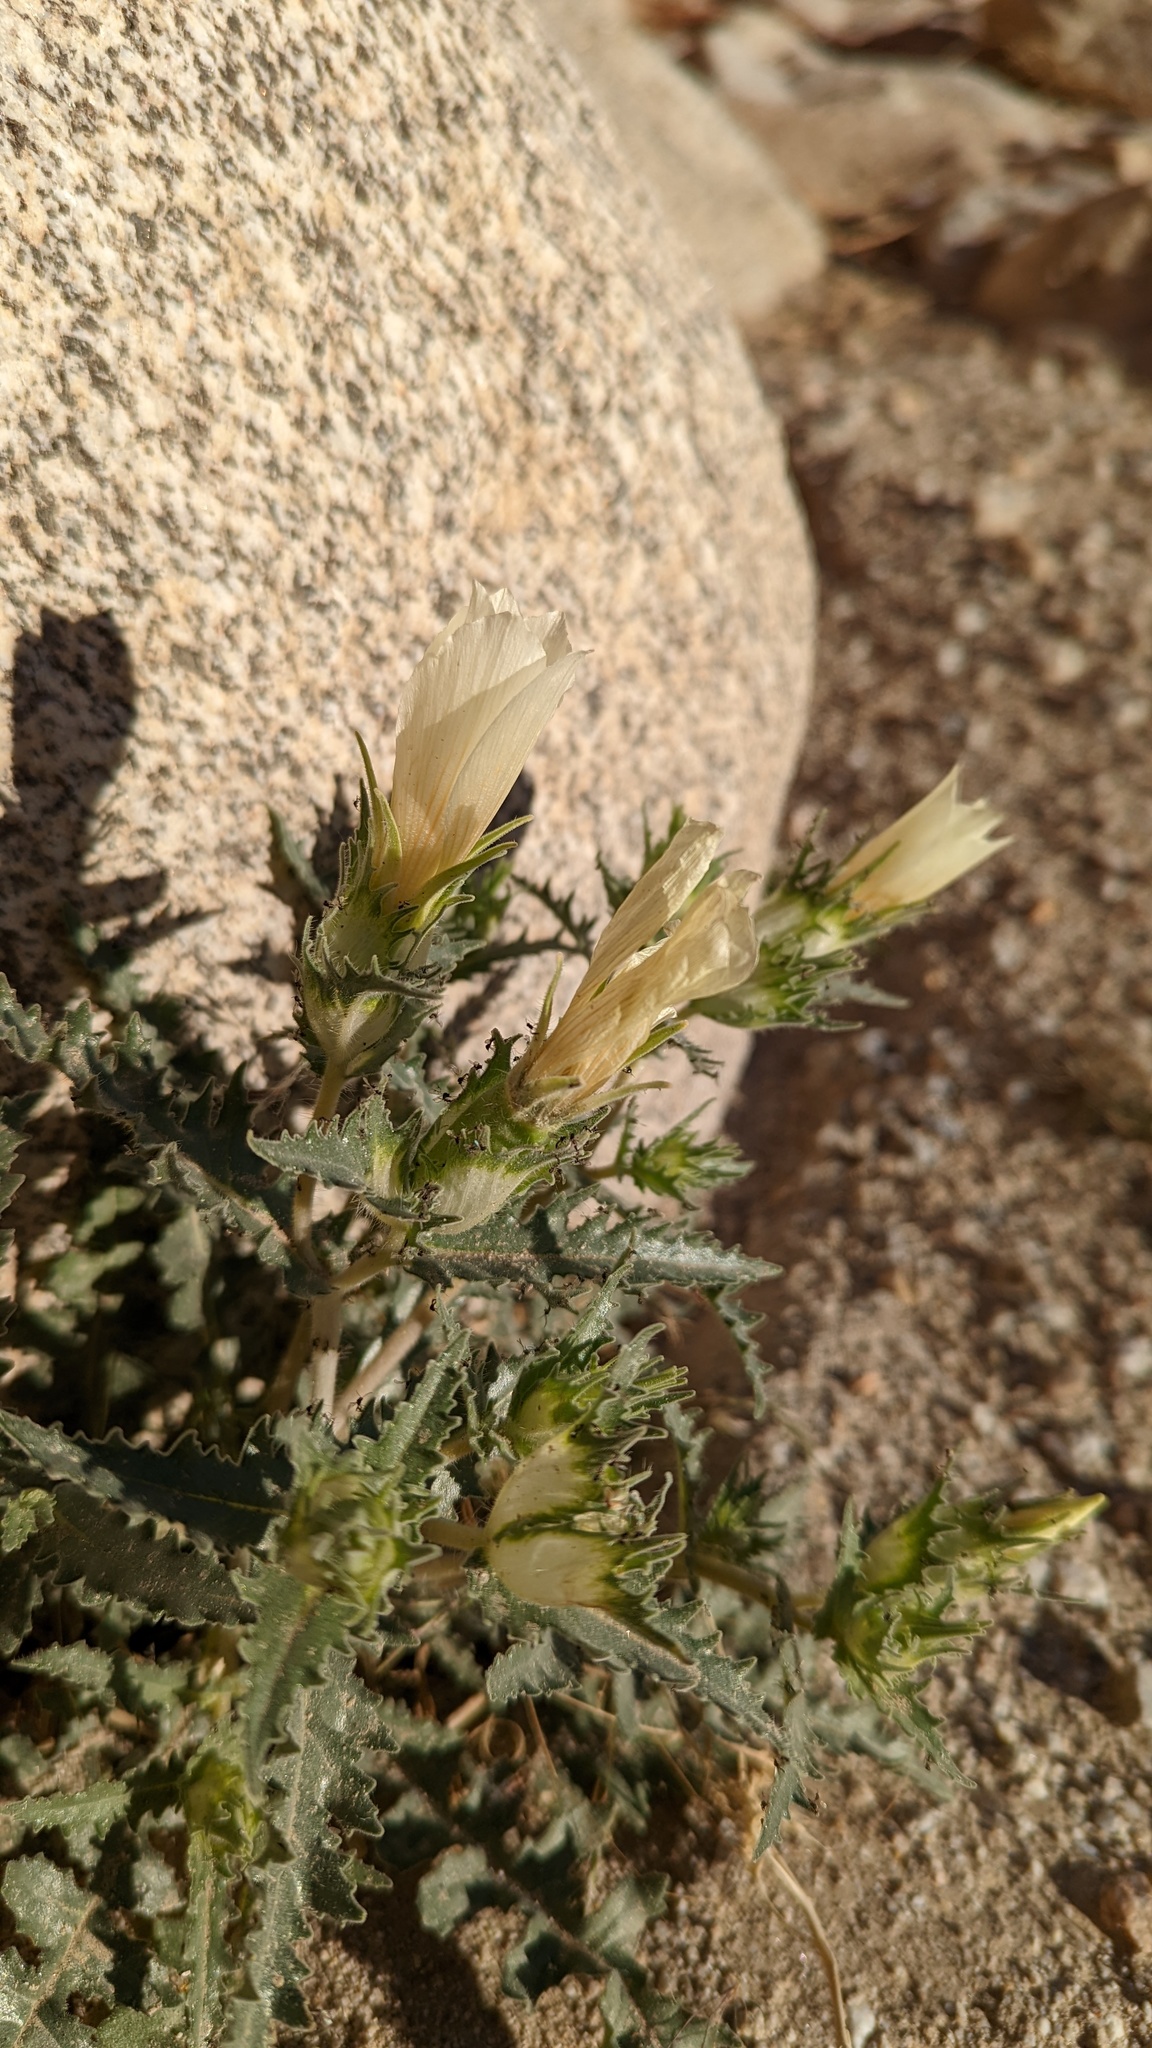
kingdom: Plantae
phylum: Tracheophyta
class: Magnoliopsida
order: Cornales
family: Loasaceae
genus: Mentzelia
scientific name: Mentzelia involucrata
